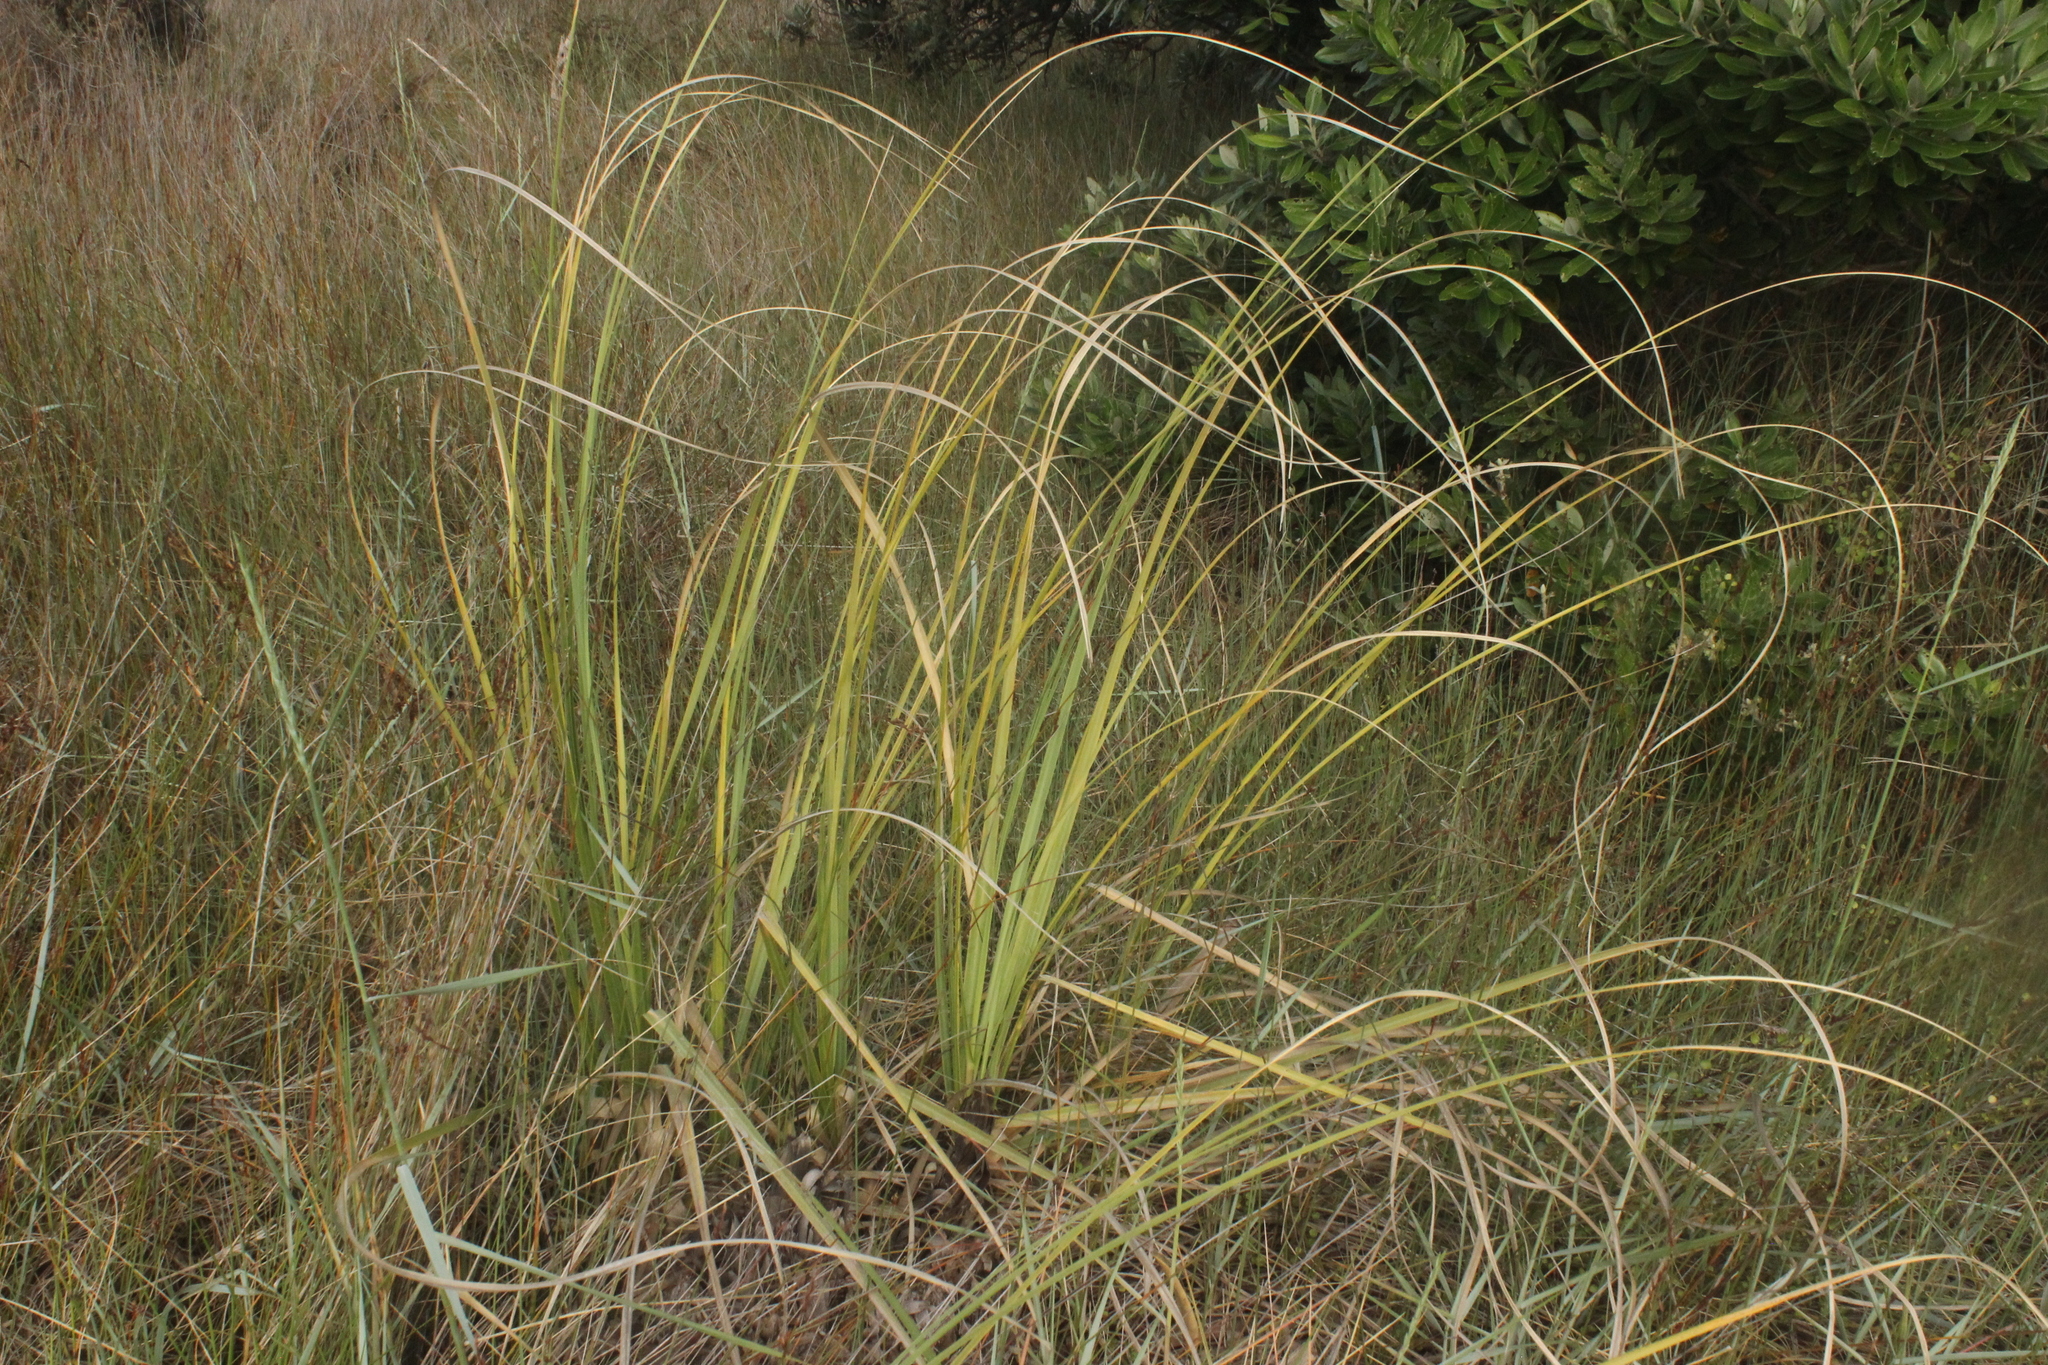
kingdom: Plantae
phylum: Tracheophyta
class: Liliopsida
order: Poales
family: Poaceae
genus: Cortaderia
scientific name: Cortaderia selloana
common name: Uruguayan pampas grass
